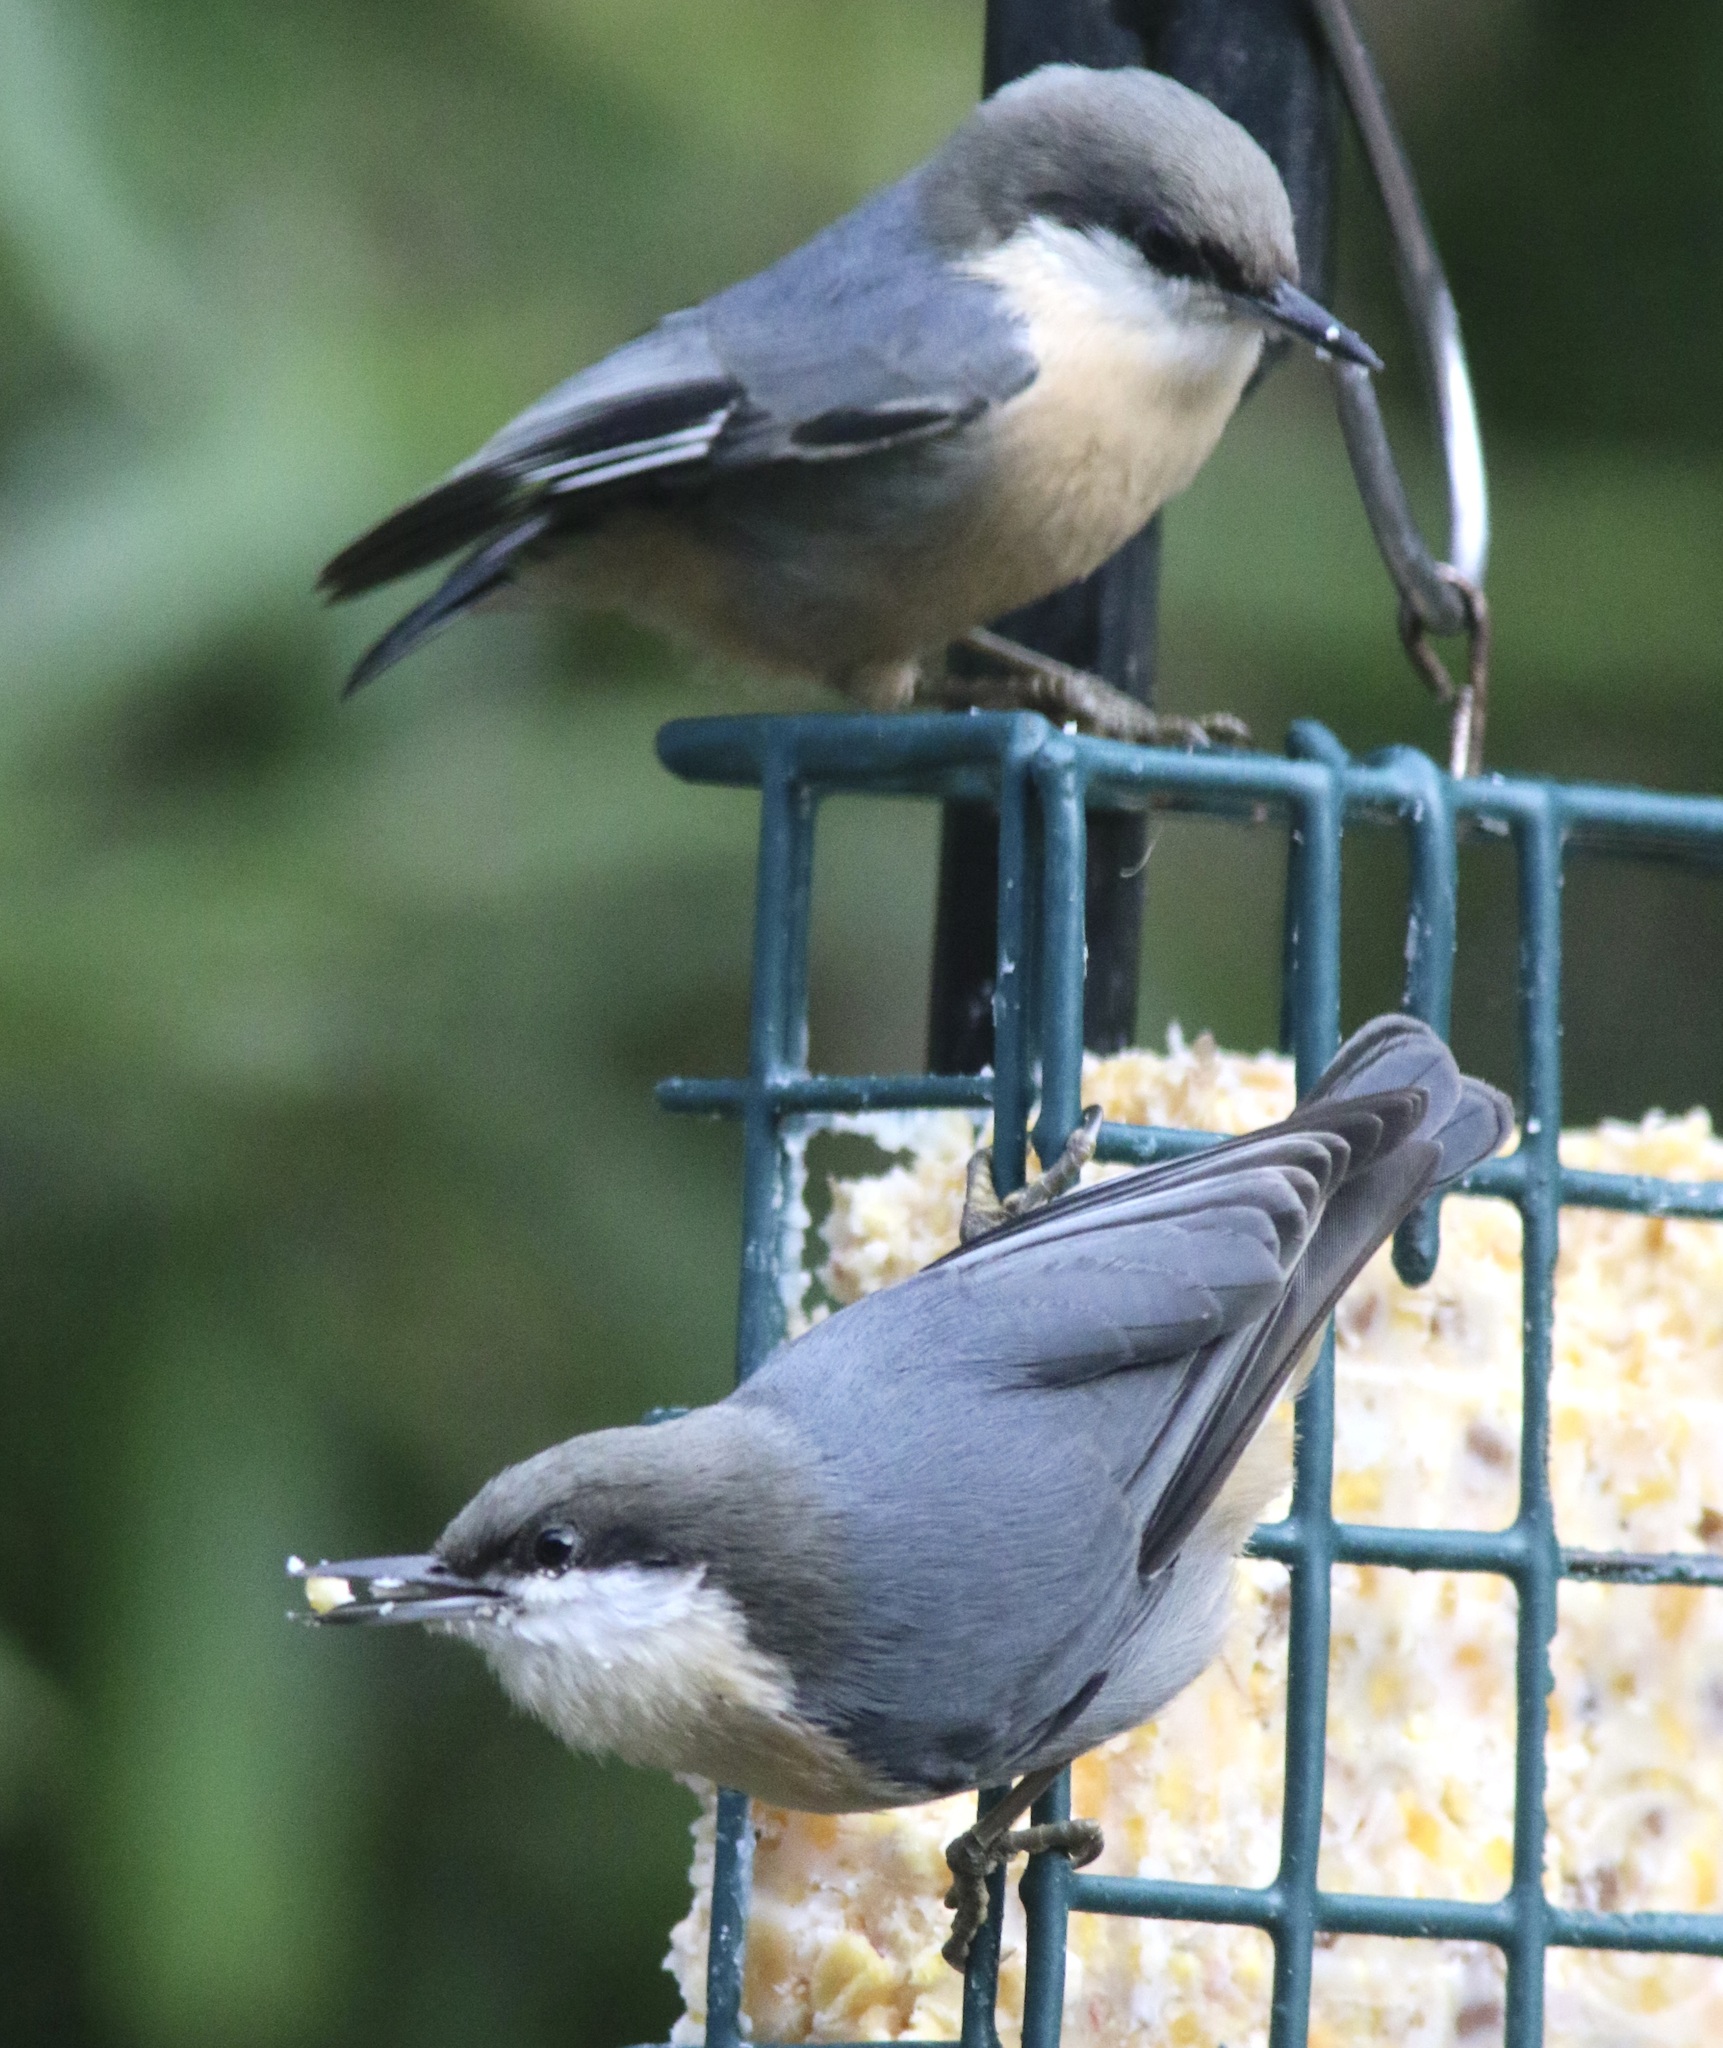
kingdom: Animalia
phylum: Chordata
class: Aves
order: Passeriformes
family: Sittidae
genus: Sitta
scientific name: Sitta pygmaea
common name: Pygmy nuthatch
